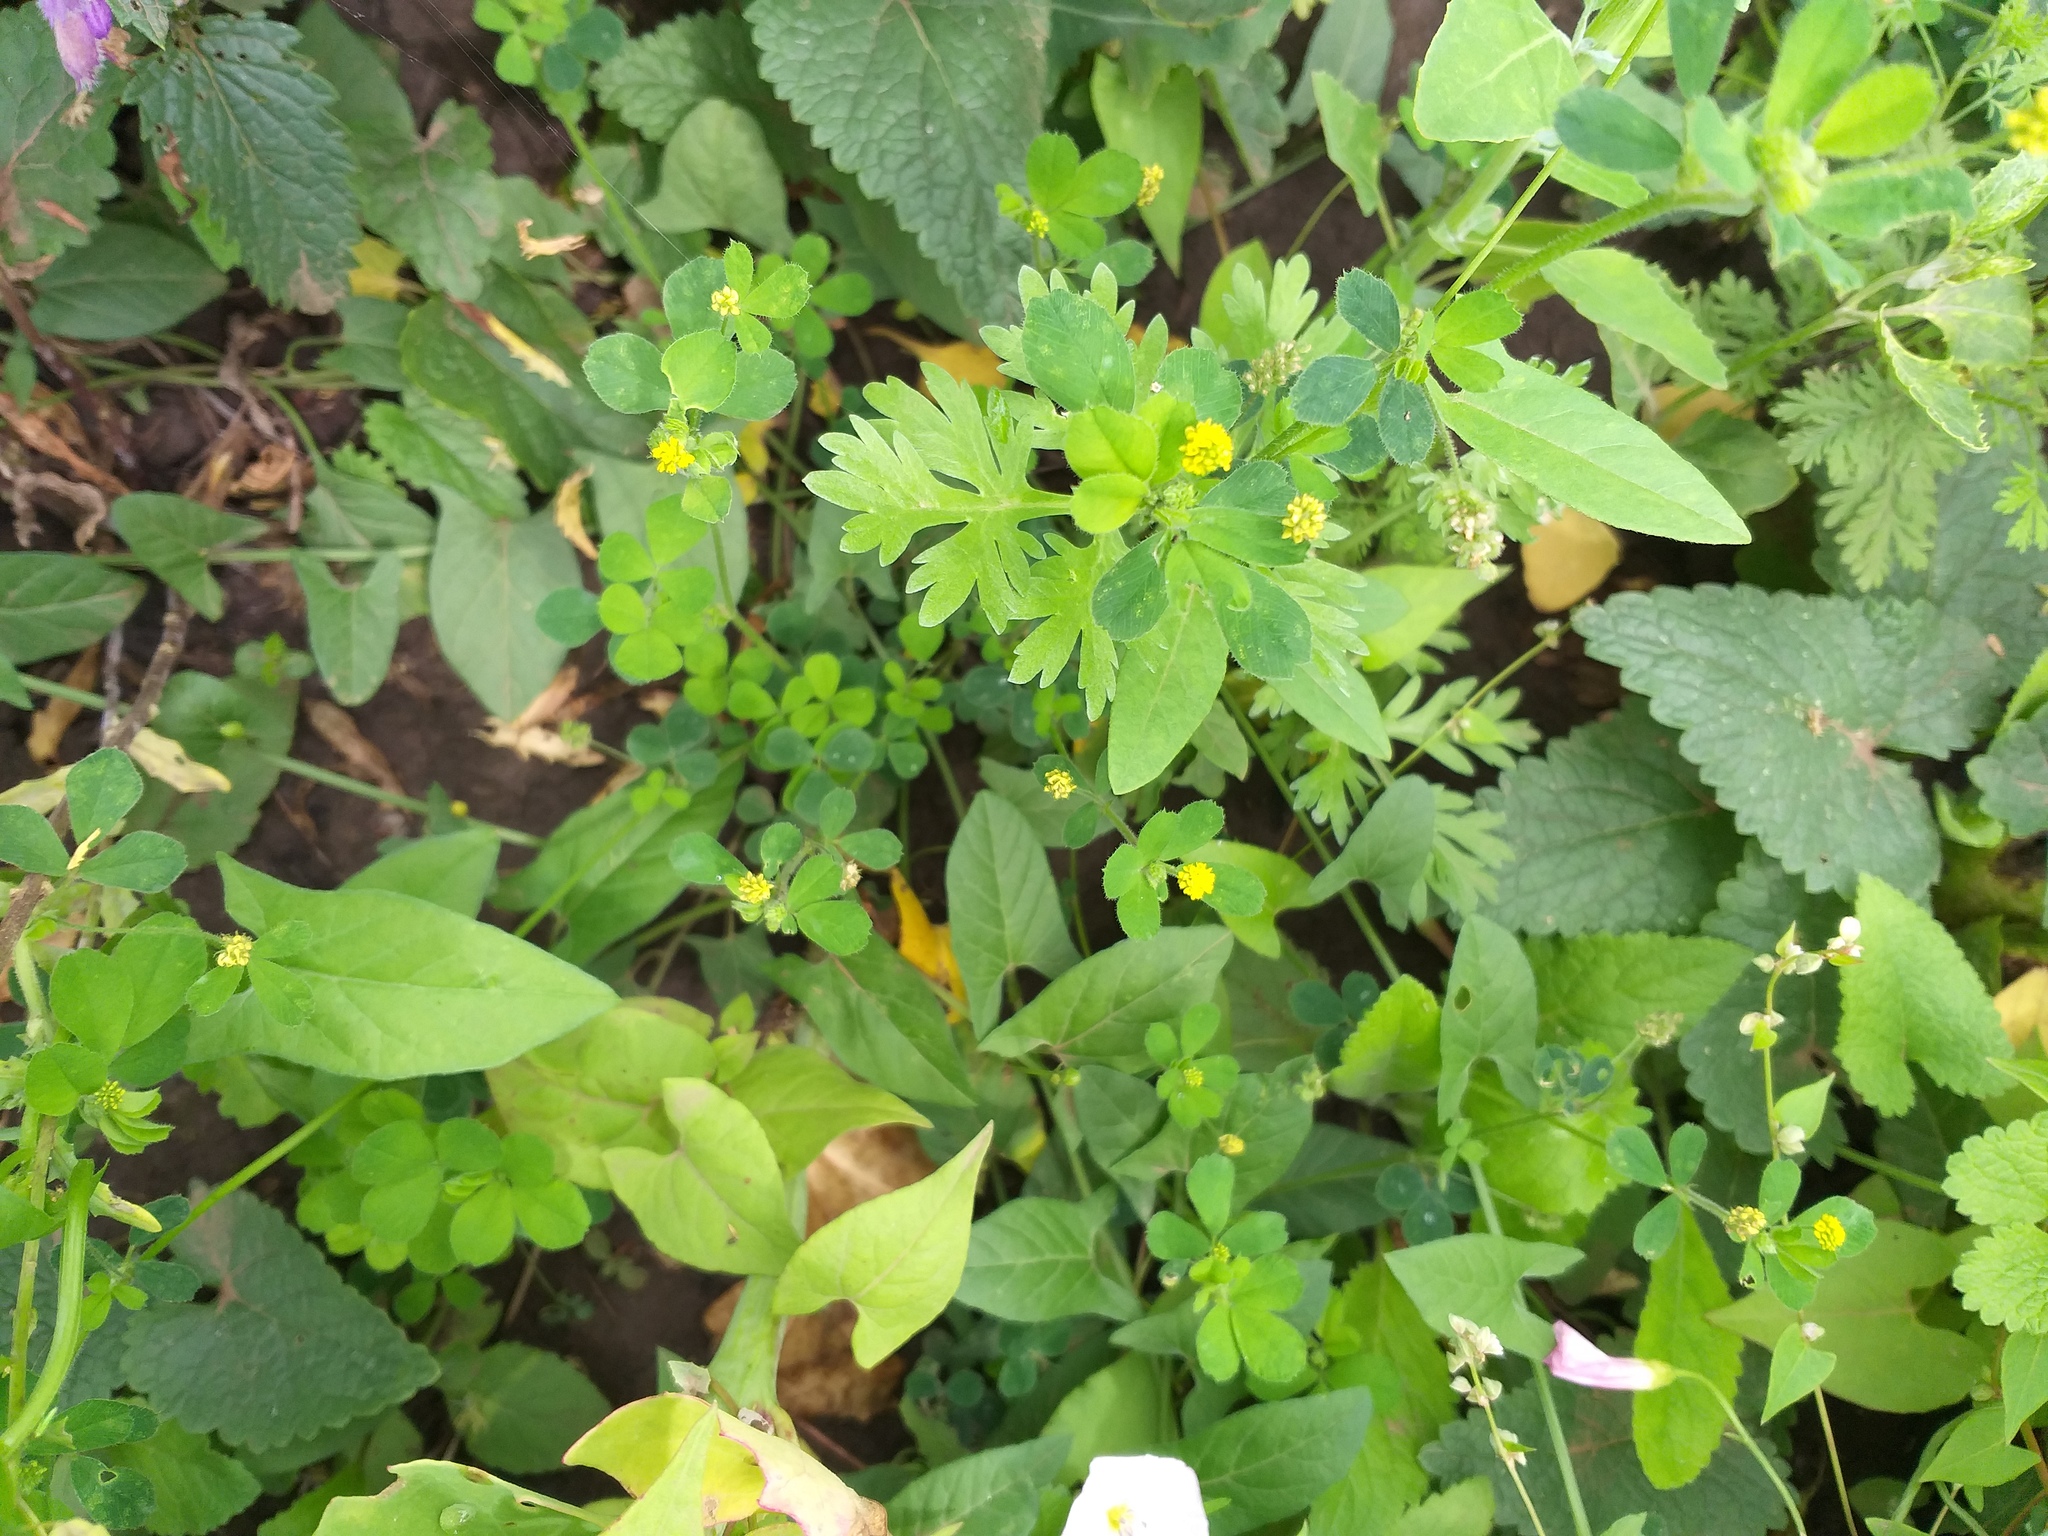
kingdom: Plantae
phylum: Tracheophyta
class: Magnoliopsida
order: Fabales
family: Fabaceae
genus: Medicago
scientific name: Medicago lupulina
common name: Black medick
